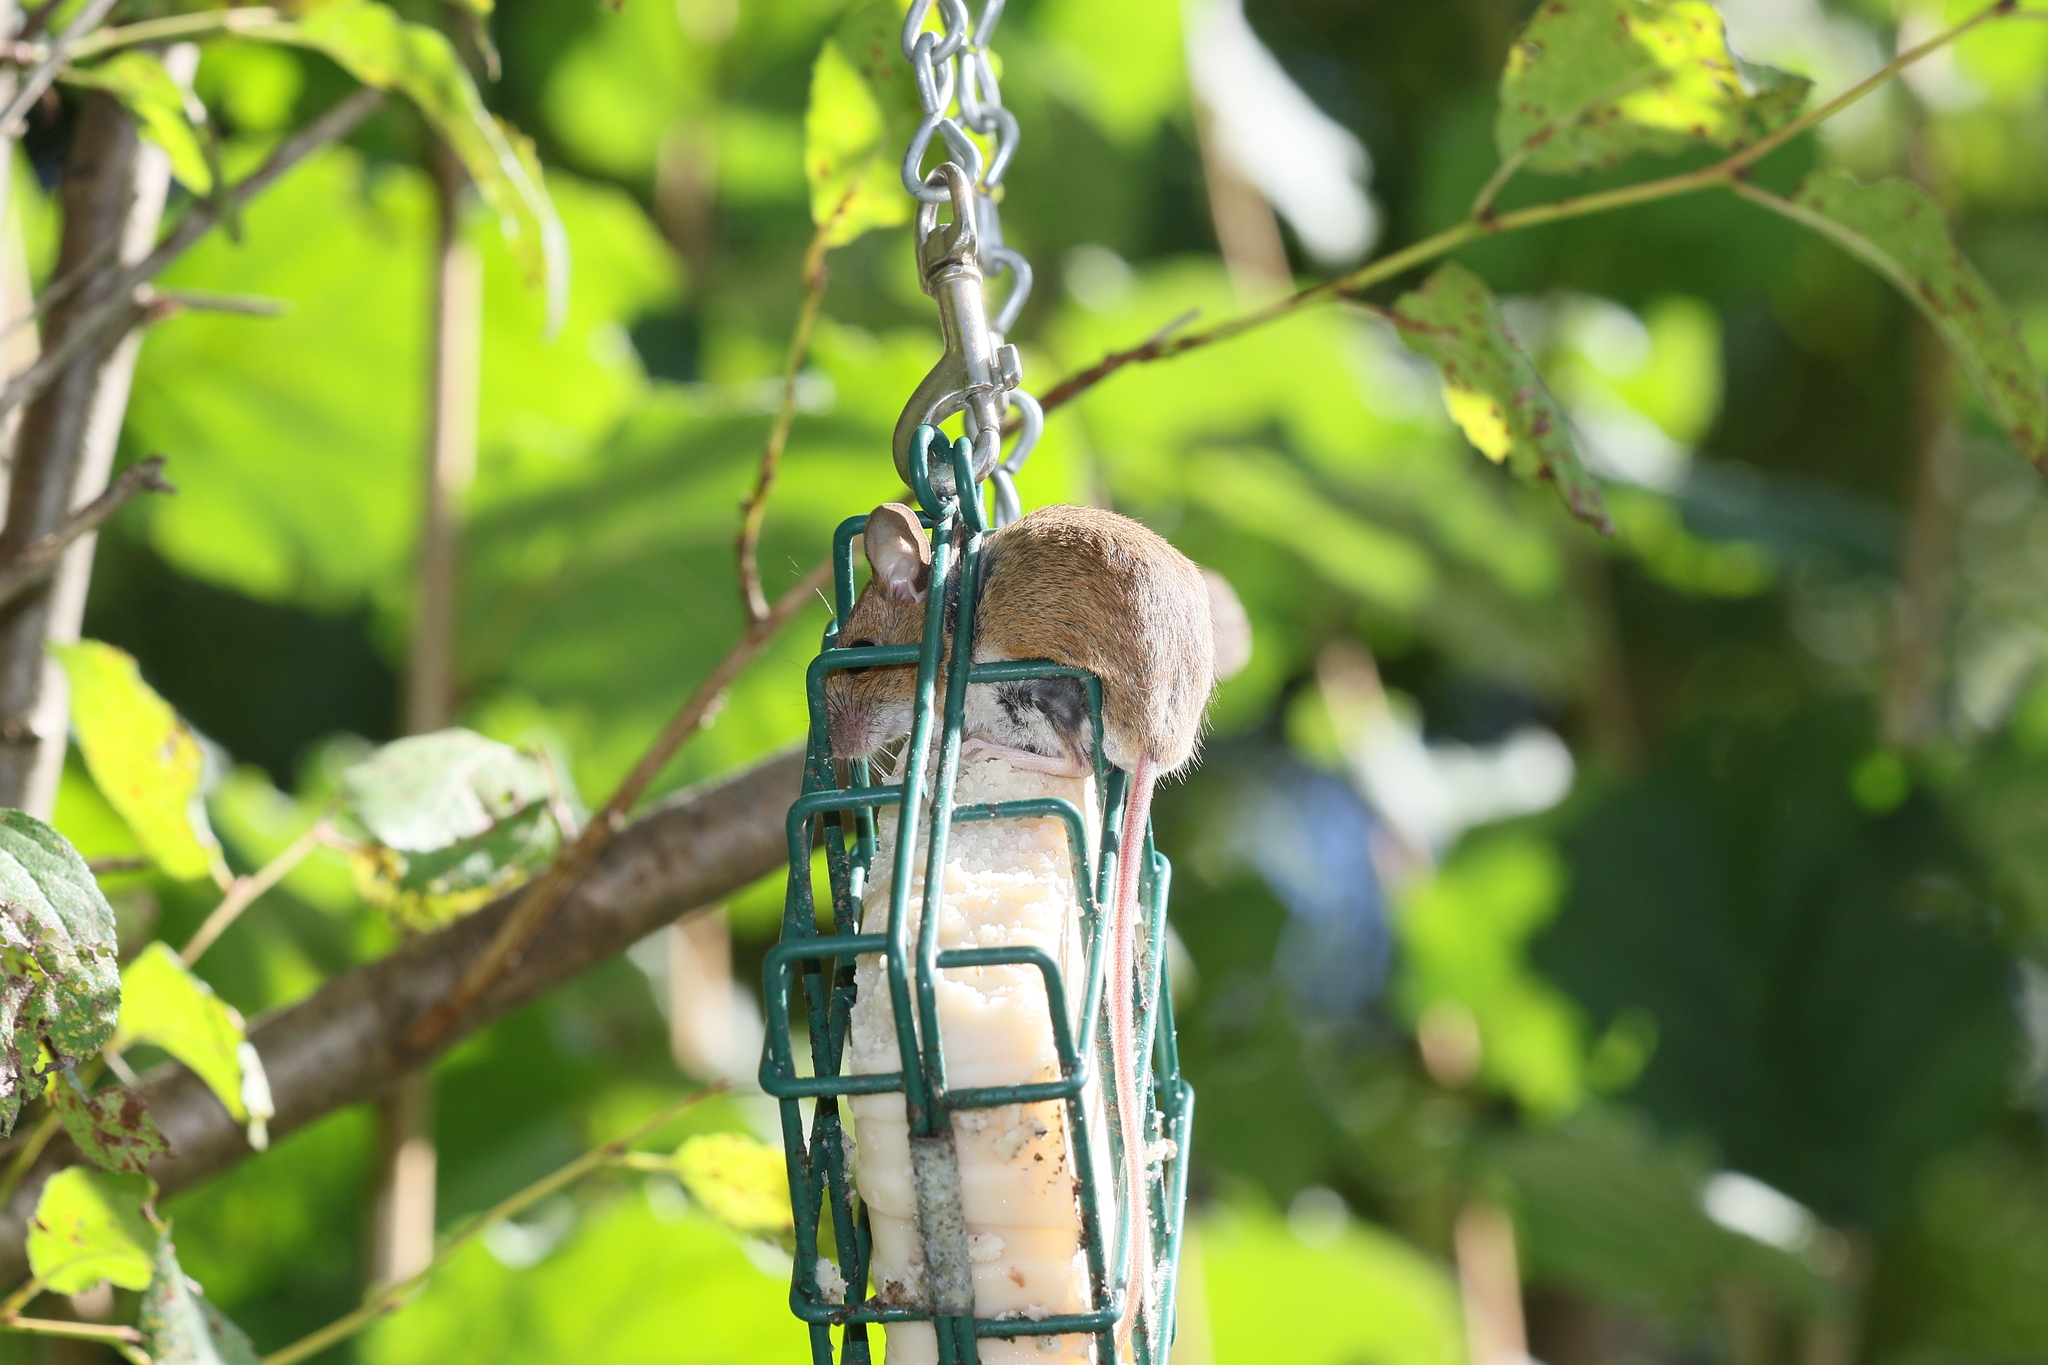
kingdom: Animalia
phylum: Chordata
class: Mammalia
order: Rodentia
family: Muridae
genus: Apodemus
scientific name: Apodemus flavicollis
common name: Yellow-necked field mouse
